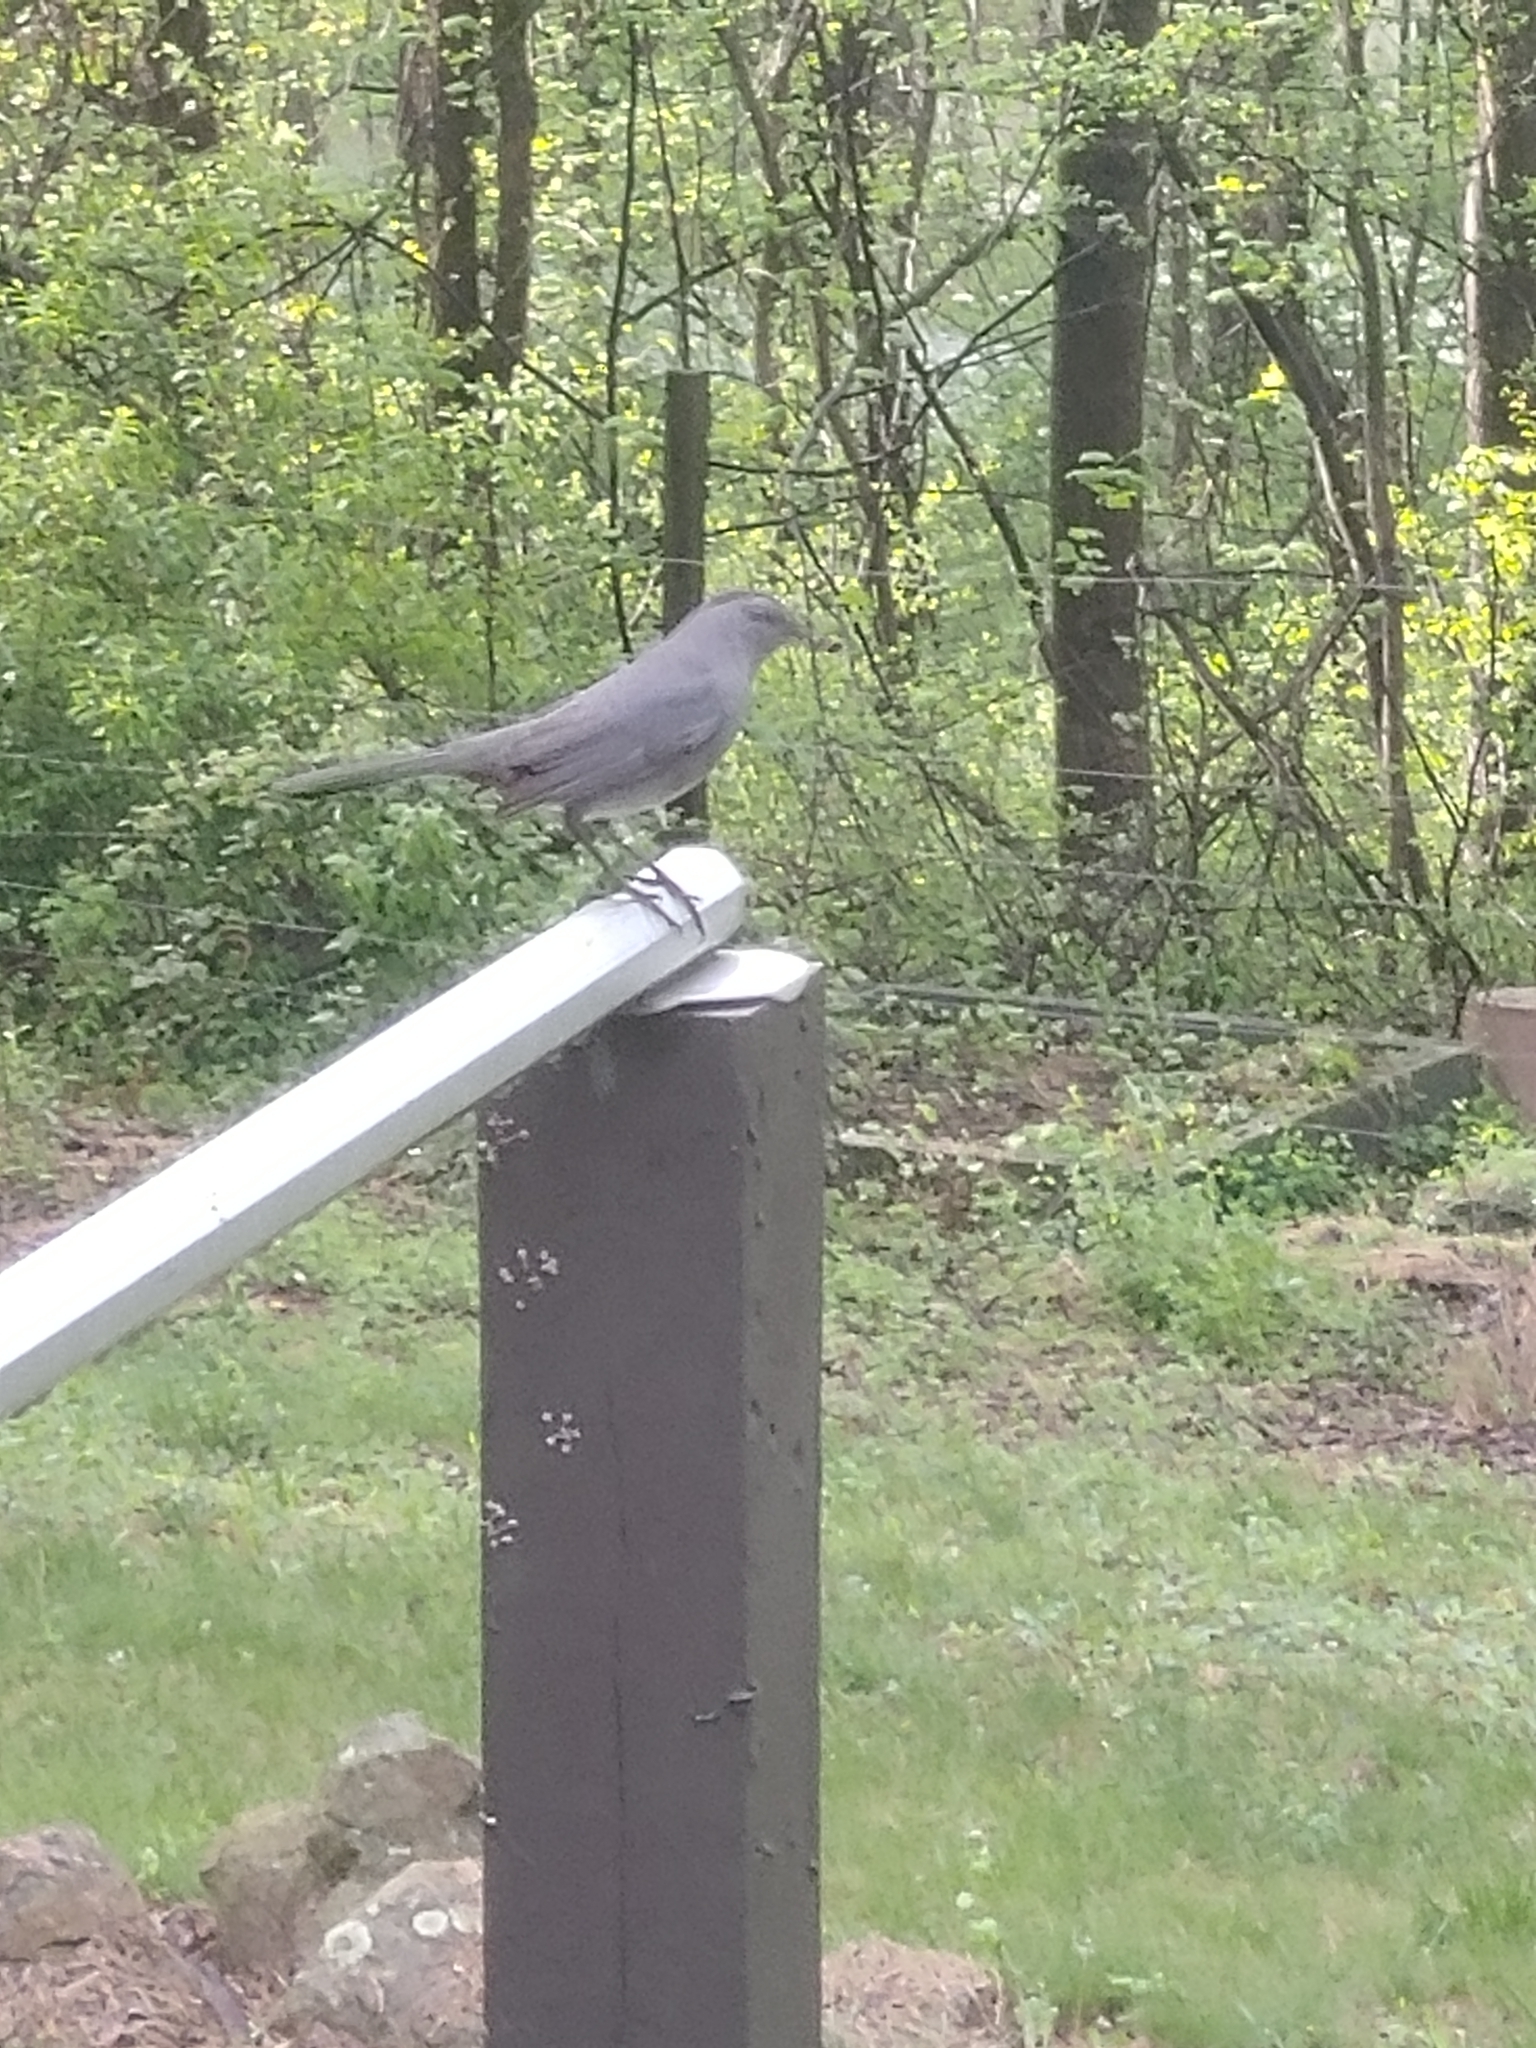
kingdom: Animalia
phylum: Chordata
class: Aves
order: Passeriformes
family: Mimidae
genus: Dumetella
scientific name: Dumetella carolinensis
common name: Gray catbird
